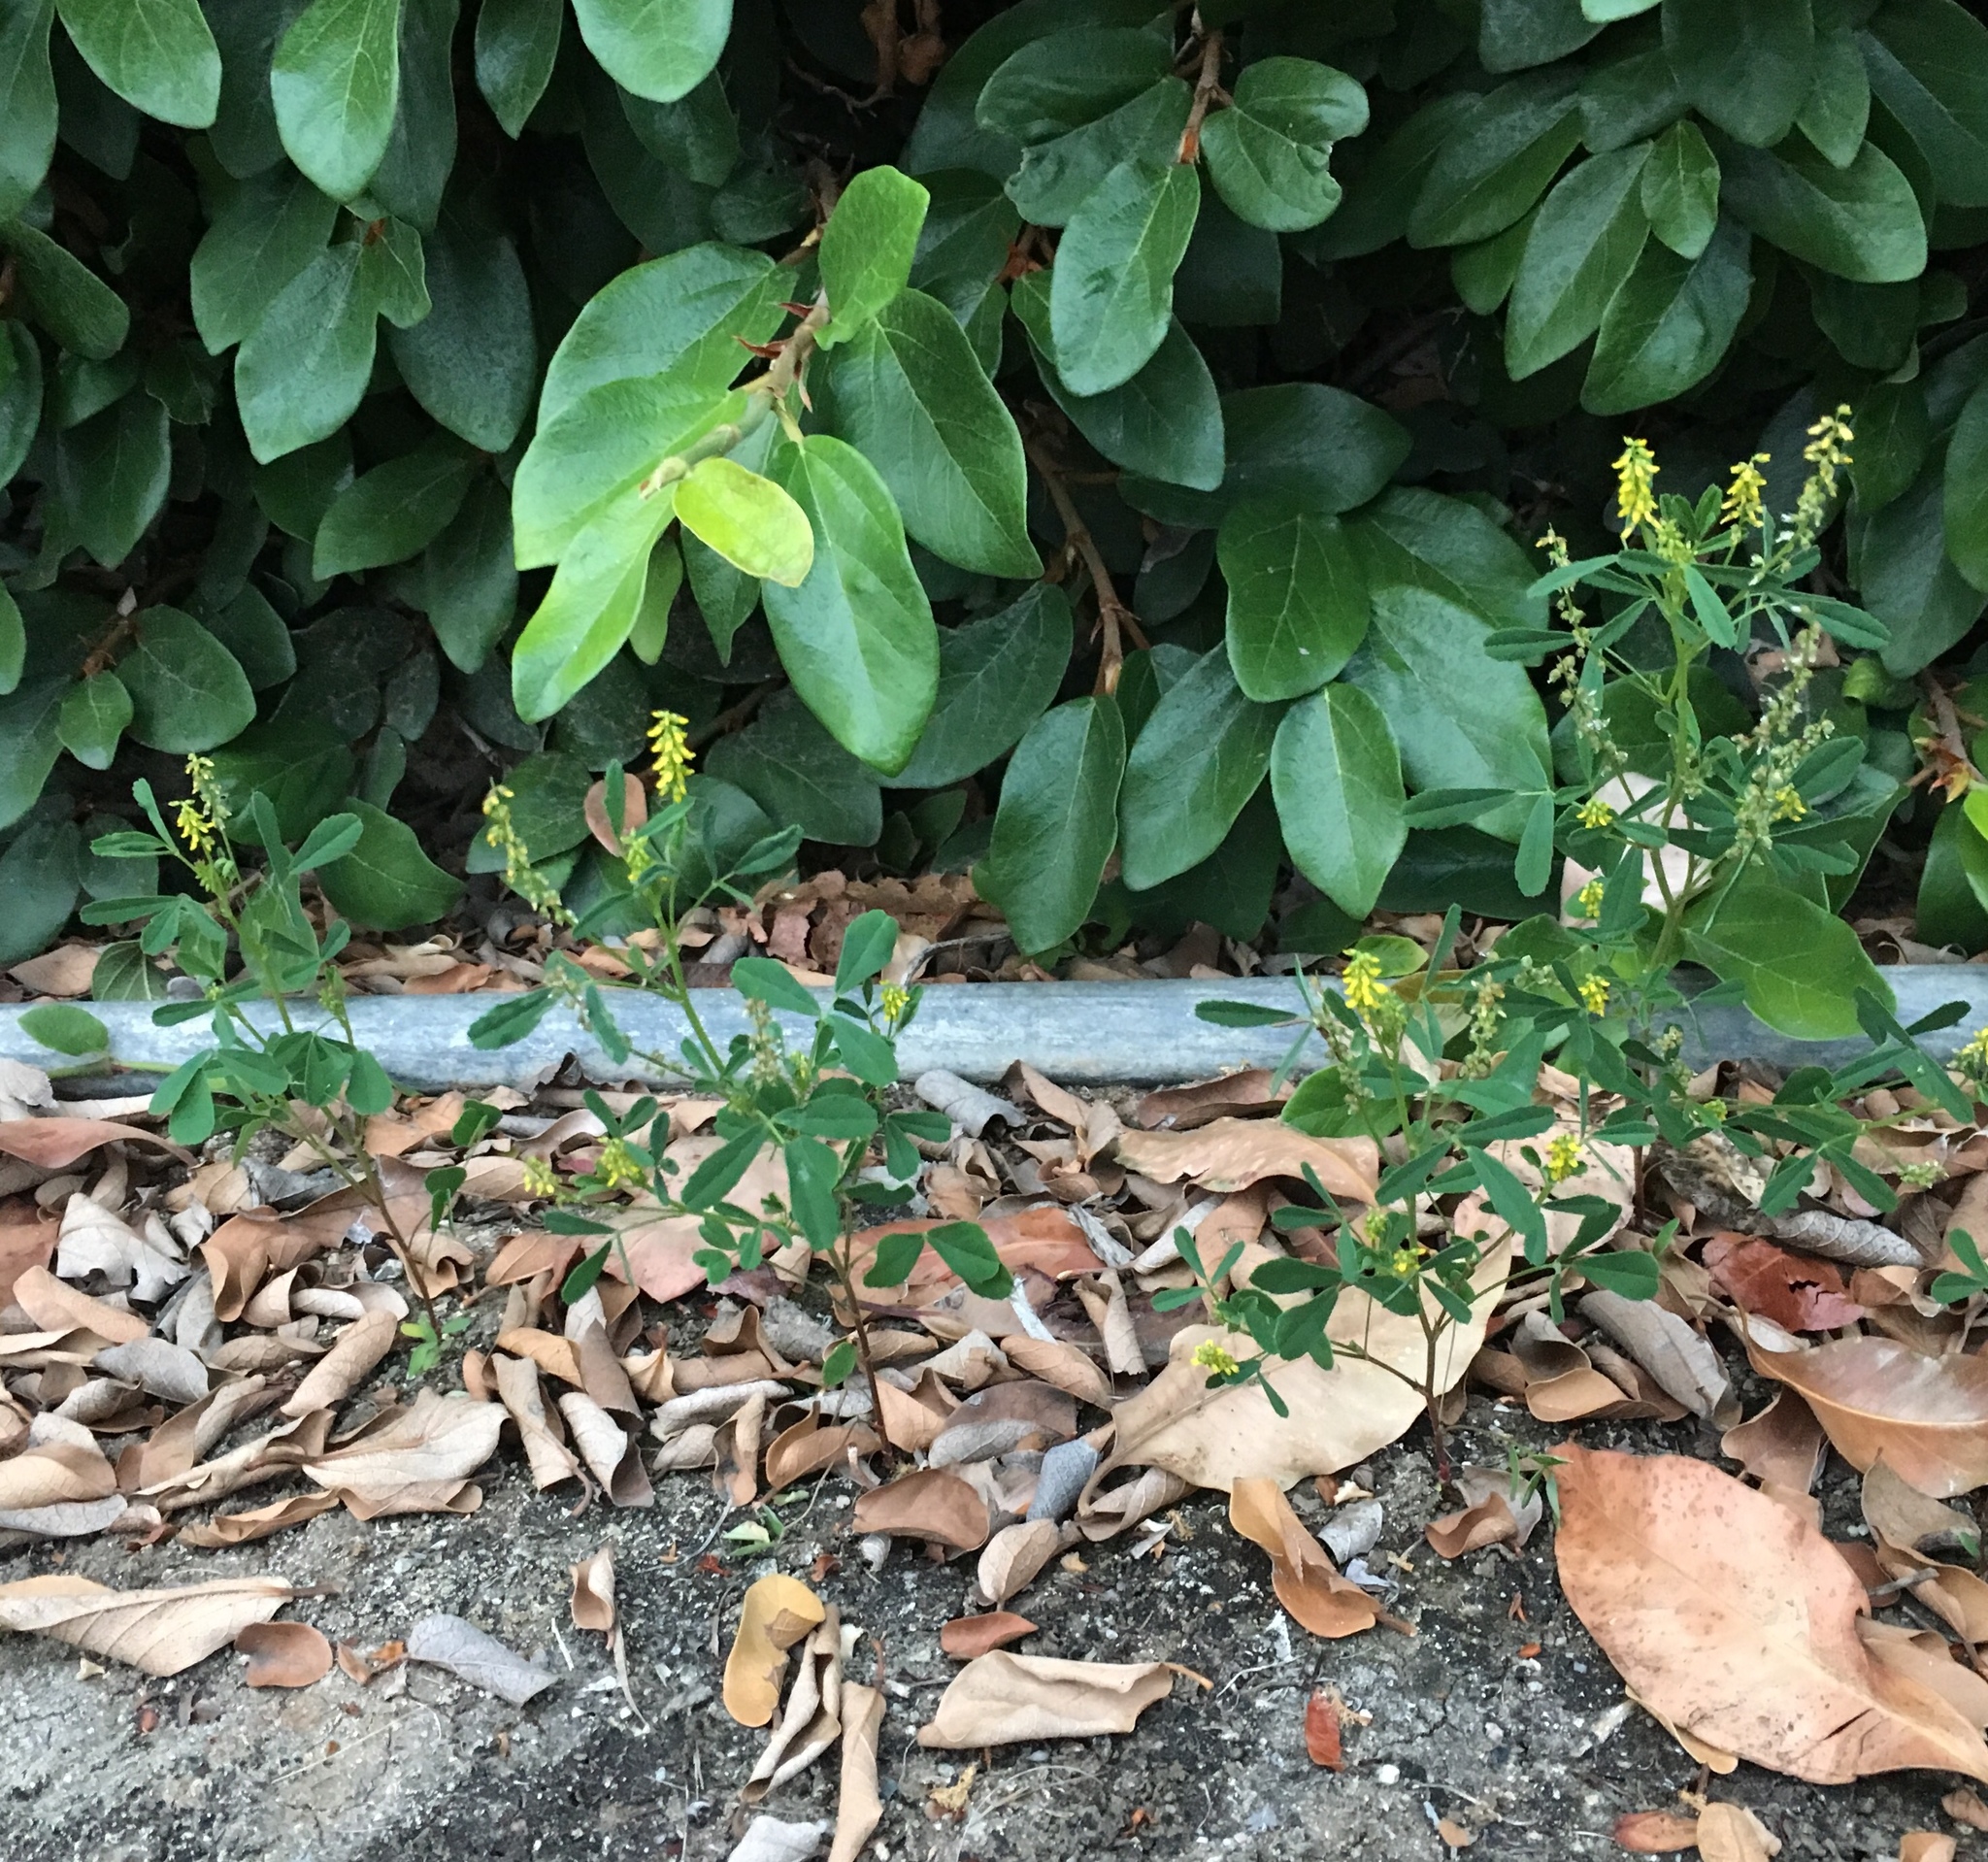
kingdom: Plantae
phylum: Tracheophyta
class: Magnoliopsida
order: Fabales
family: Fabaceae
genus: Melilotus
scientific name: Melilotus indicus
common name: Small melilot
